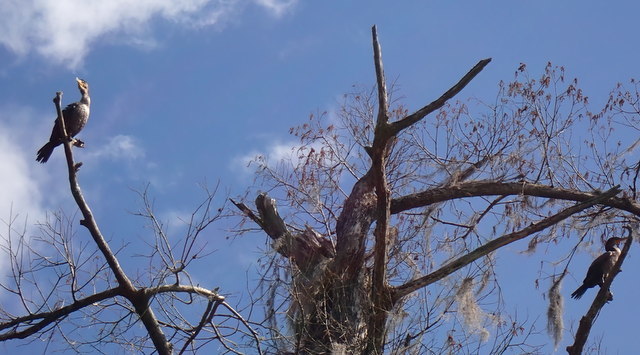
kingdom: Animalia
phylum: Chordata
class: Aves
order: Suliformes
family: Phalacrocoracidae
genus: Phalacrocorax
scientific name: Phalacrocorax auritus
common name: Double-crested cormorant
